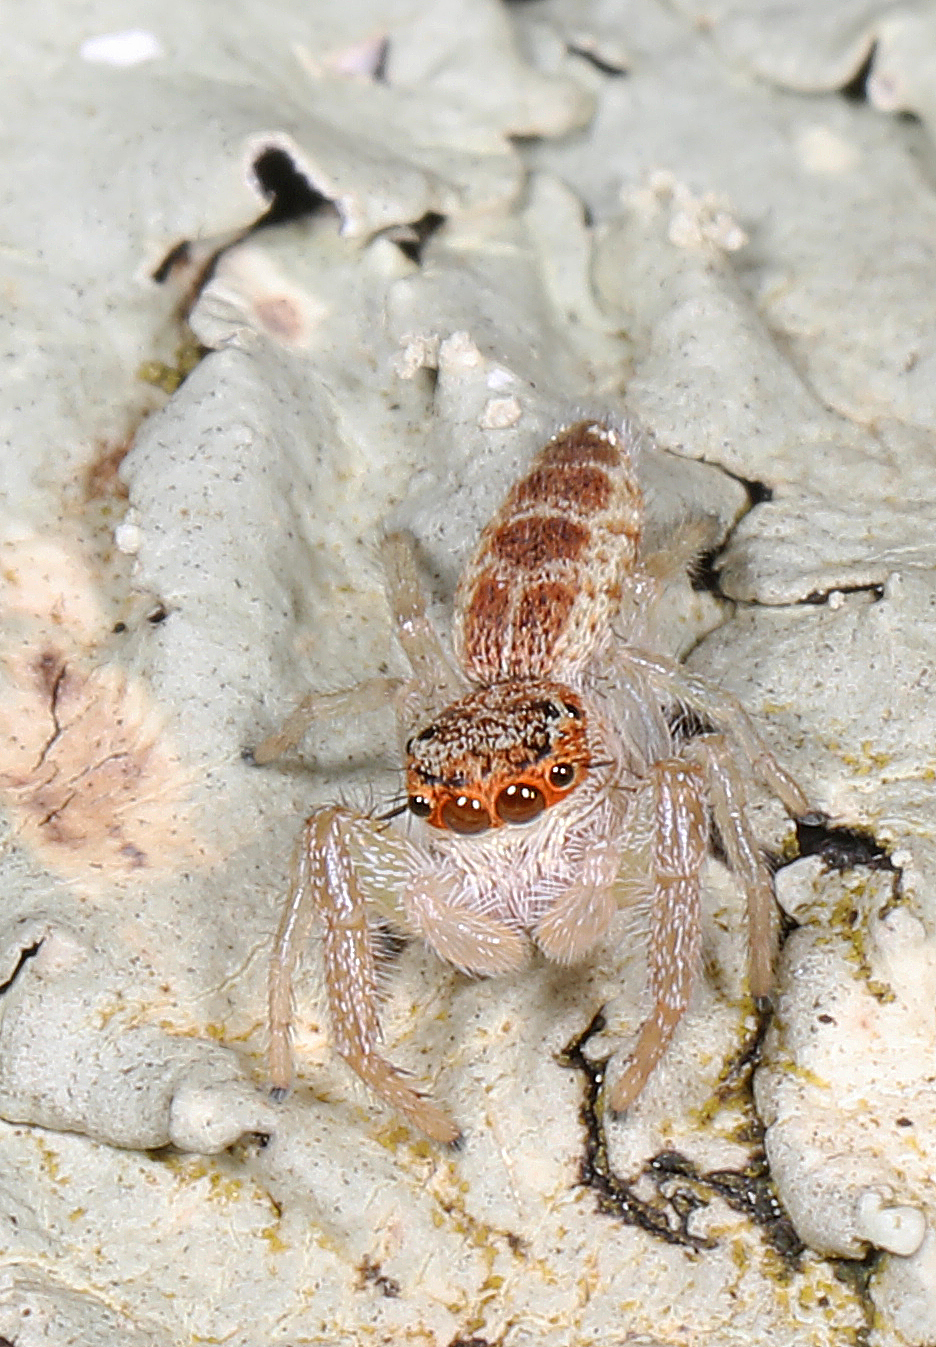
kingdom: Animalia
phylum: Arthropoda
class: Arachnida
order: Araneae
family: Salticidae
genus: Hentzia
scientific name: Hentzia mitrata
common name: White-jawed jumping spider
